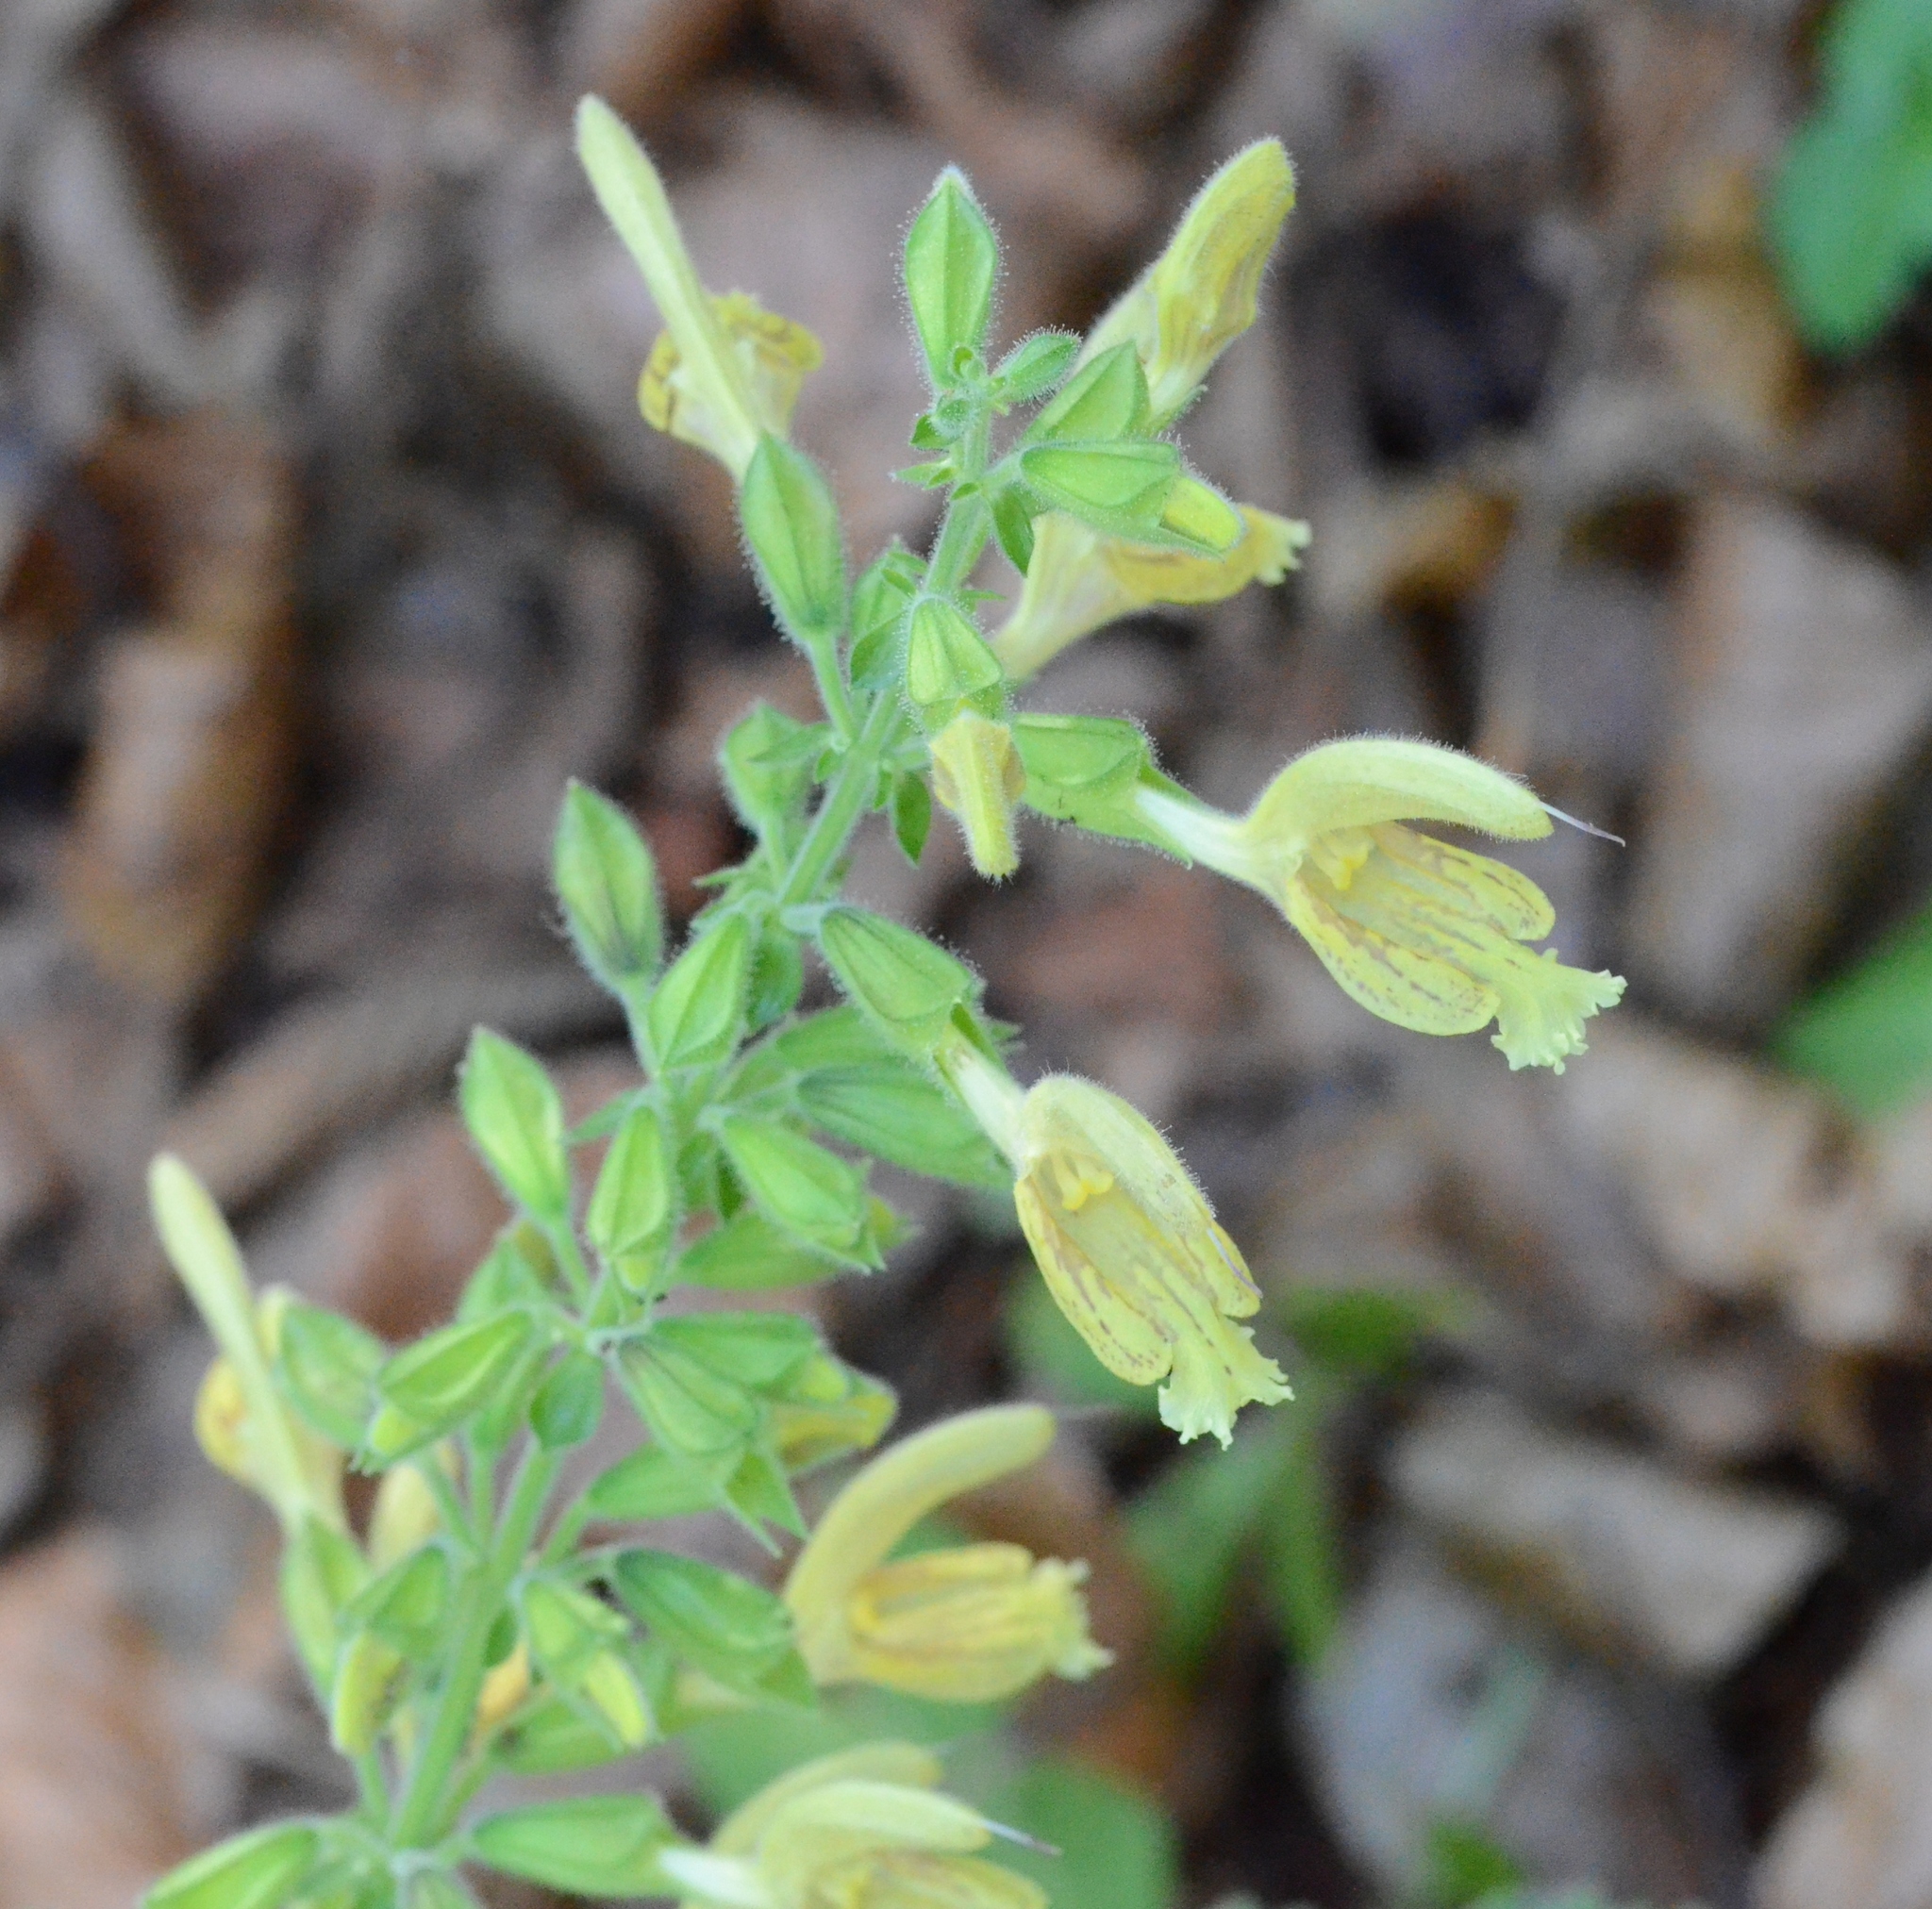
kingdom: Plantae
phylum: Tracheophyta
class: Magnoliopsida
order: Lamiales
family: Lamiaceae
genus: Salvia
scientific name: Salvia glutinosa
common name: Sticky clary
